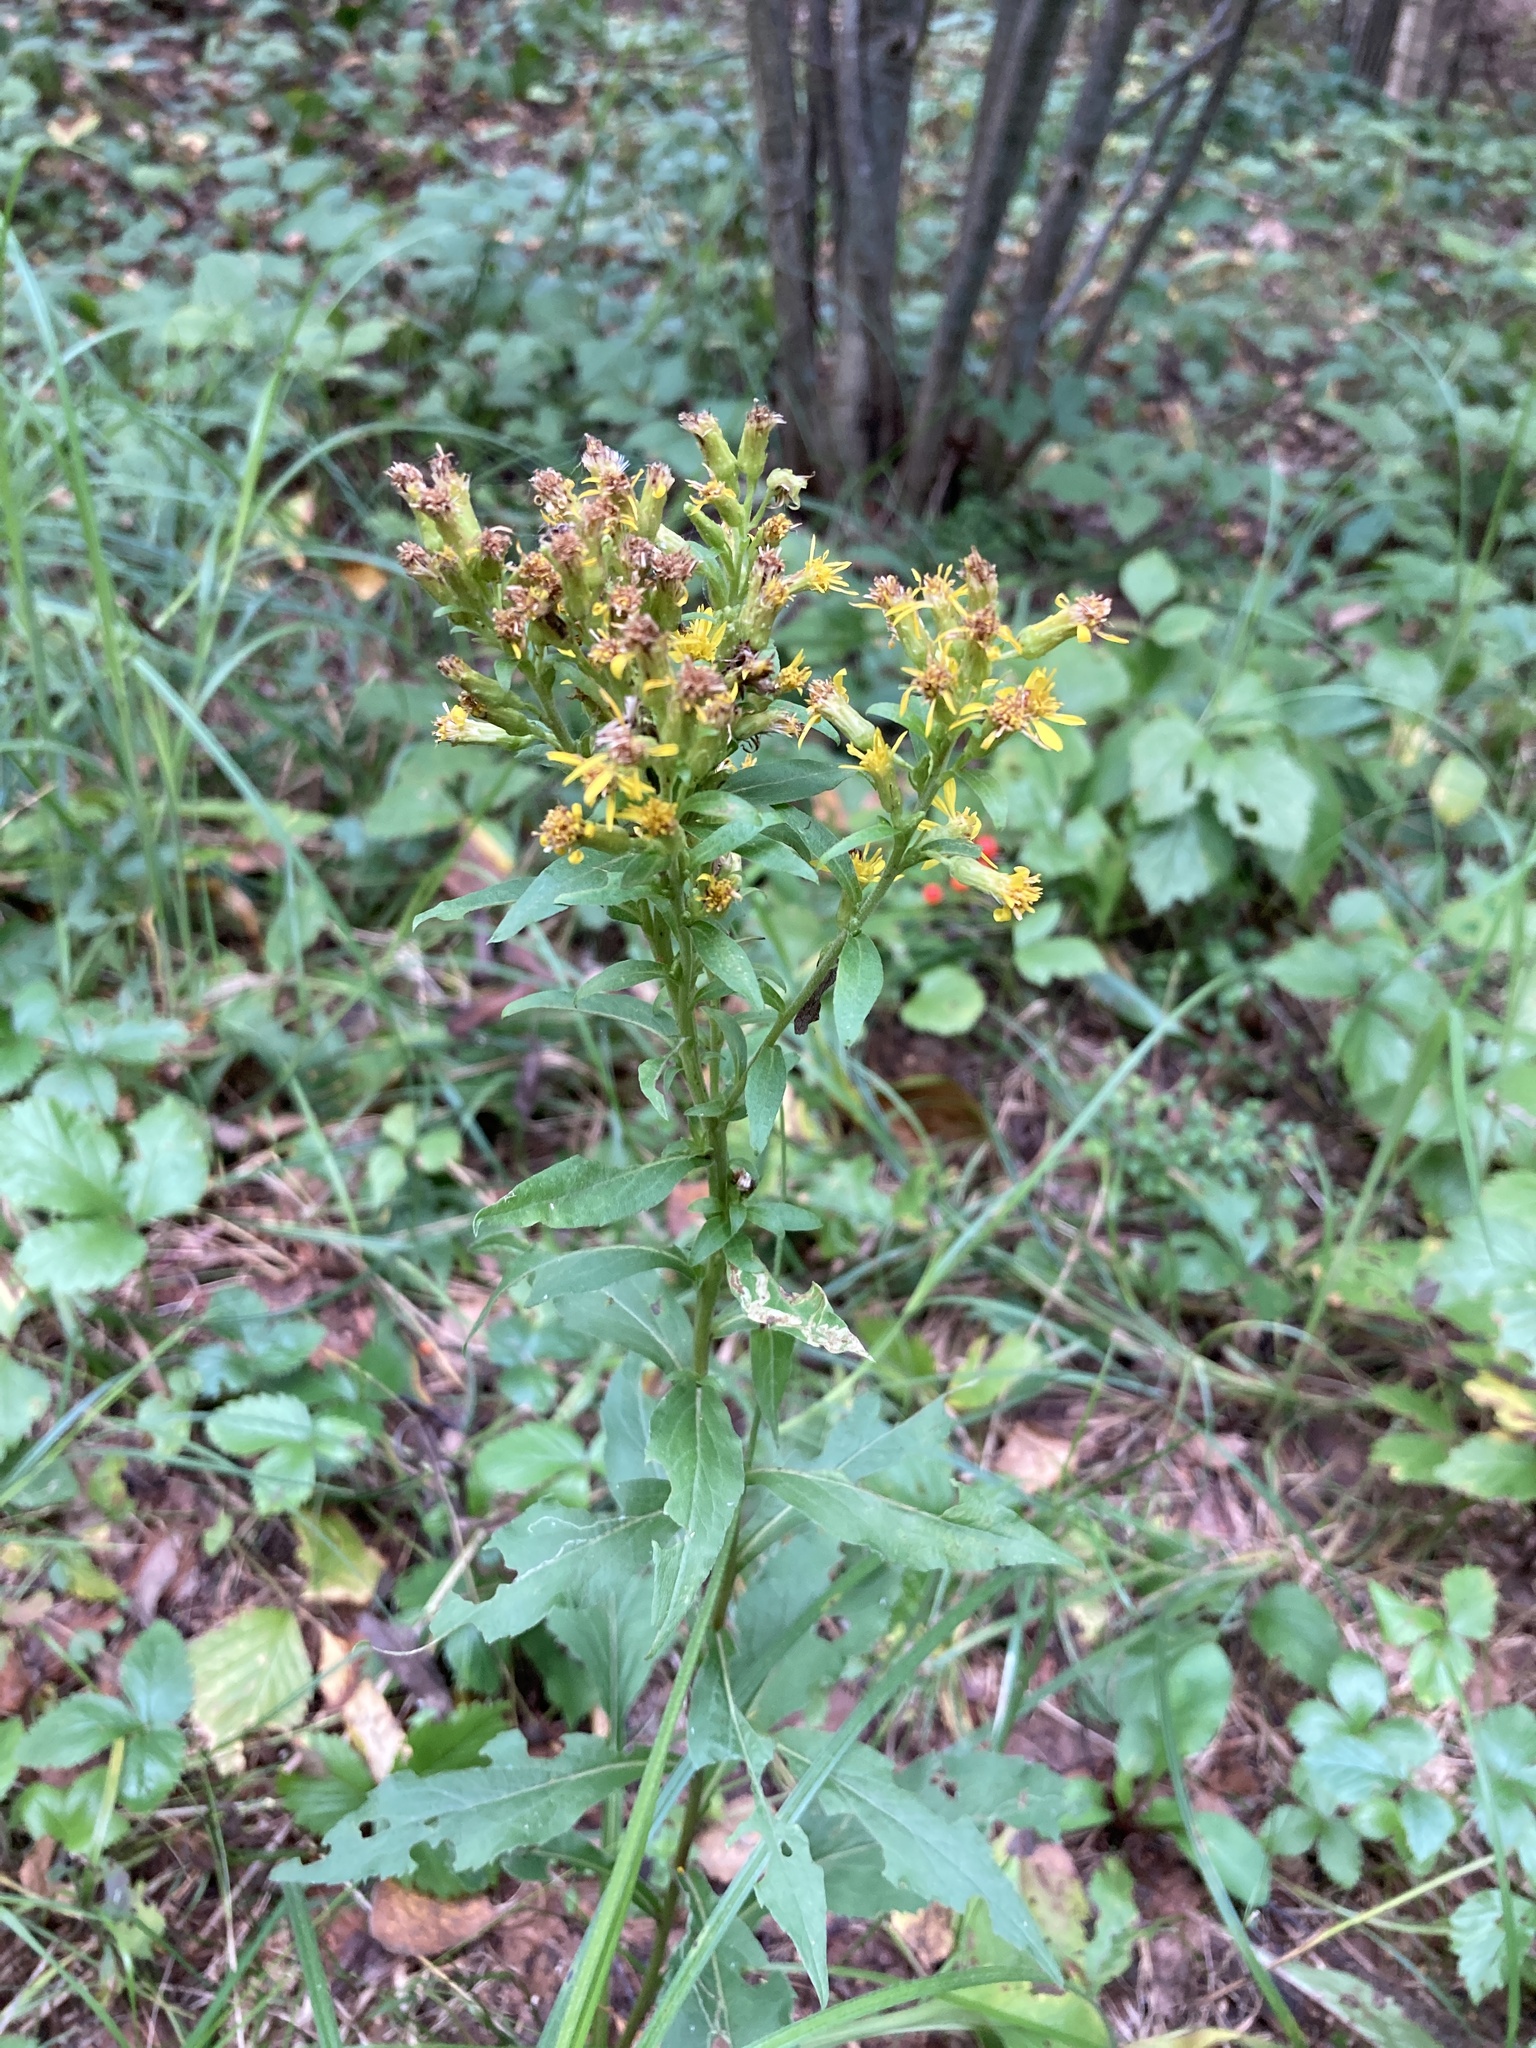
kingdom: Plantae
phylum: Tracheophyta
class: Magnoliopsida
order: Asterales
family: Asteraceae
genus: Solidago
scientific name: Solidago virgaurea
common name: Goldenrod
